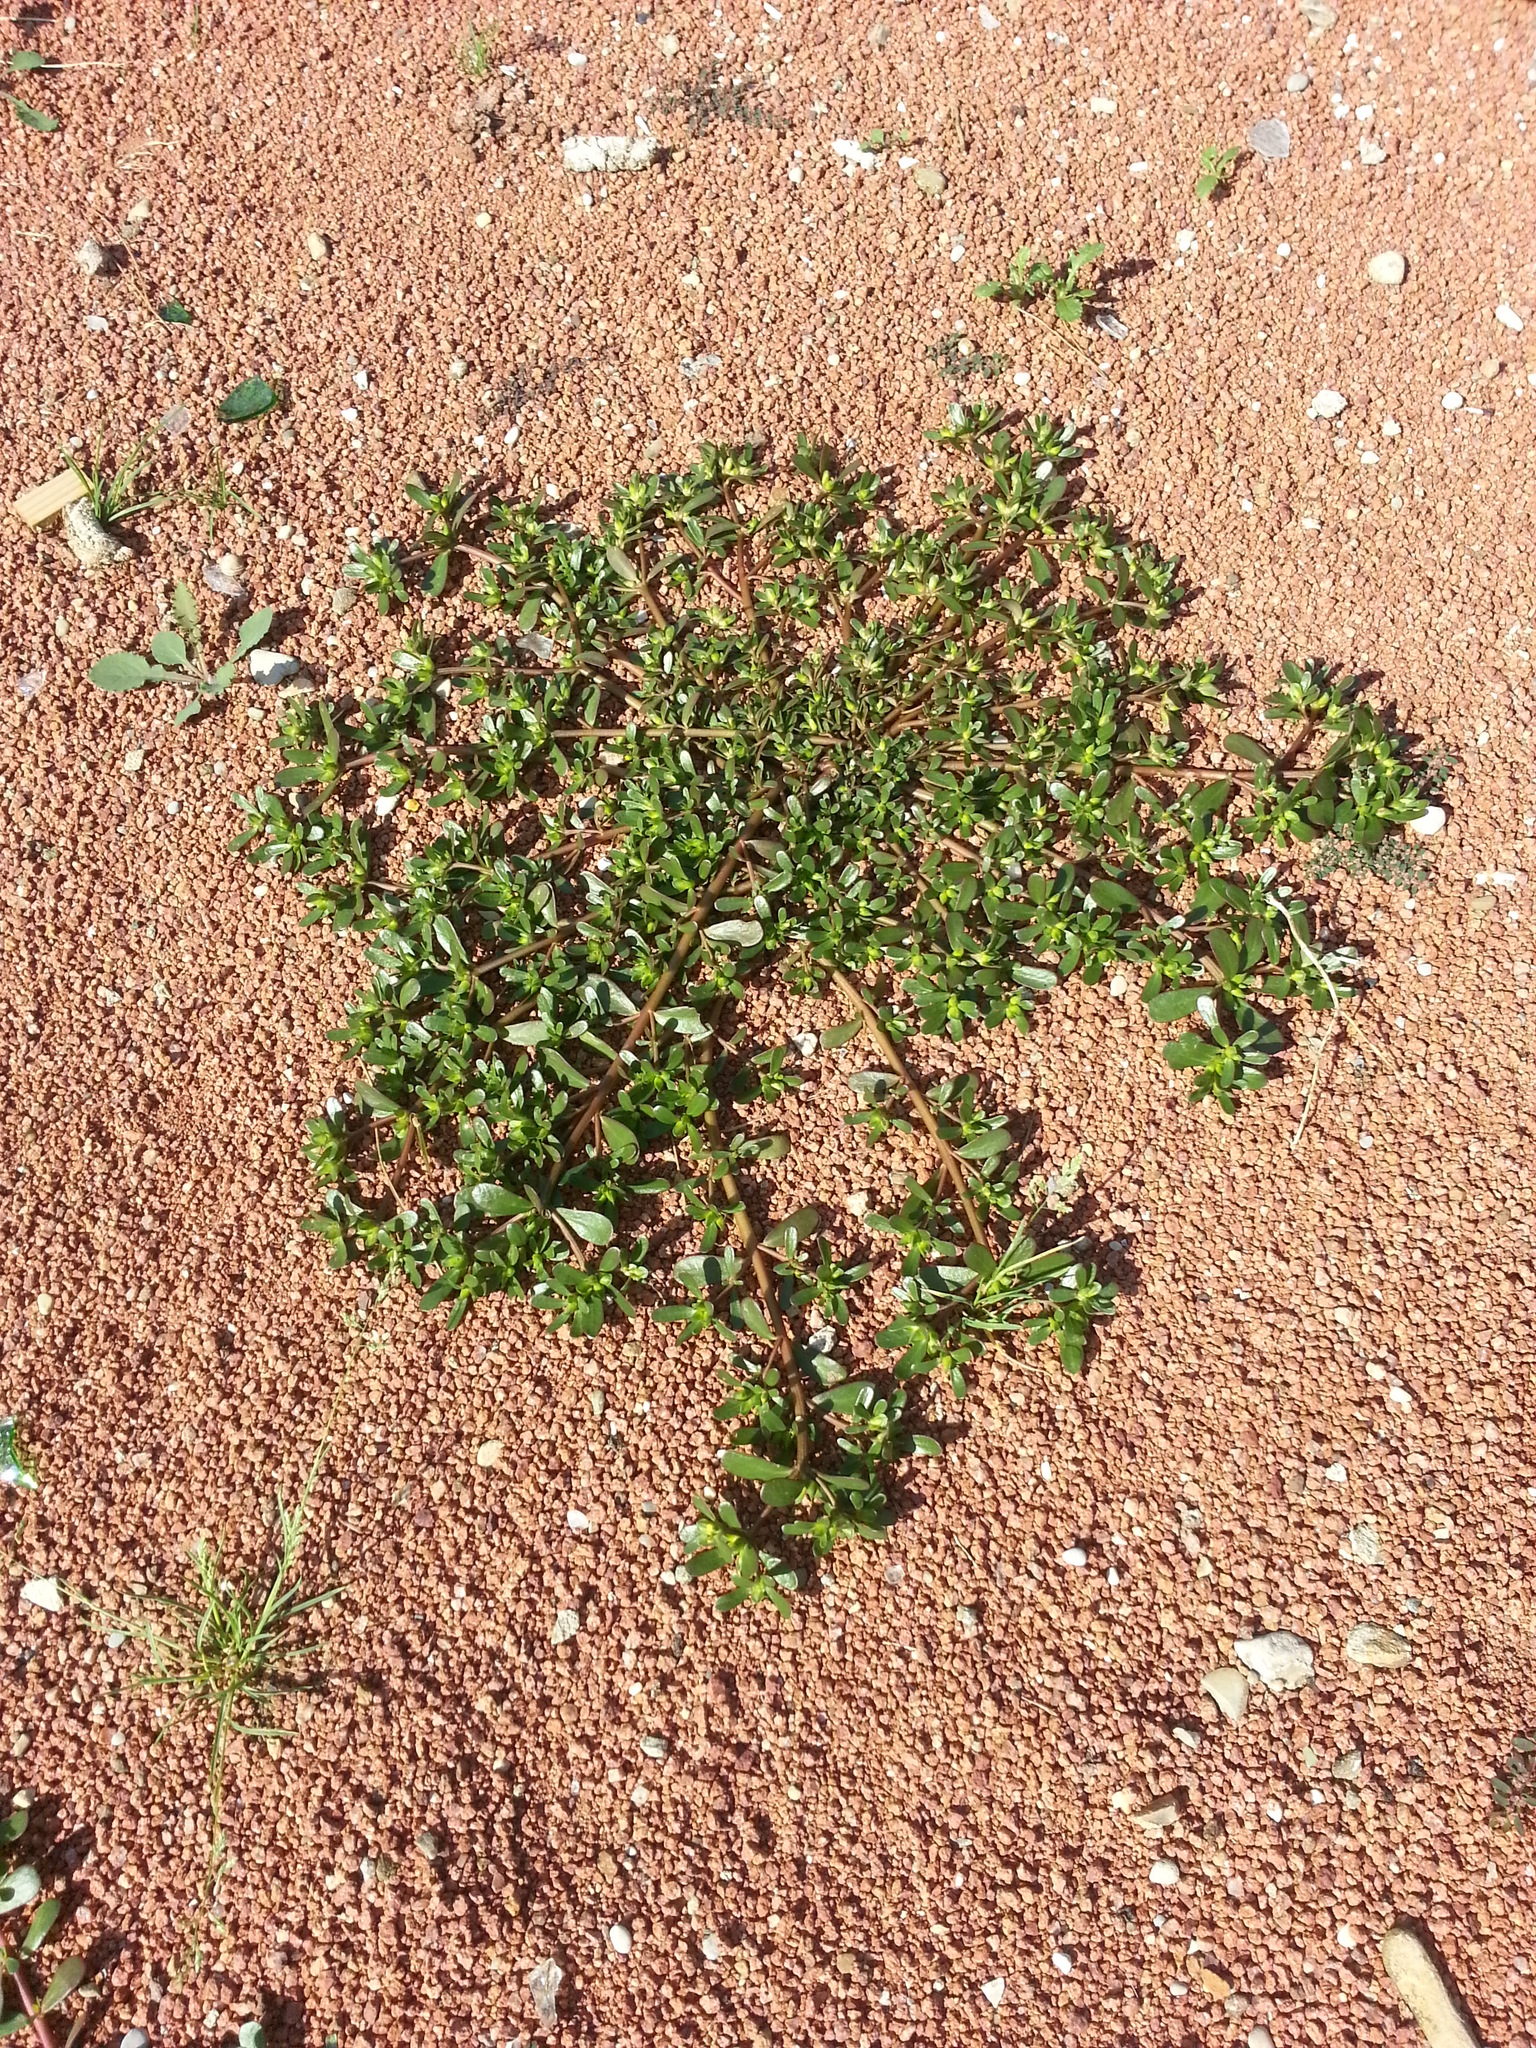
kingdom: Plantae
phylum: Tracheophyta
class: Magnoliopsida
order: Caryophyllales
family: Portulacaceae
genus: Portulaca
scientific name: Portulaca oleracea
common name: Common purslane
